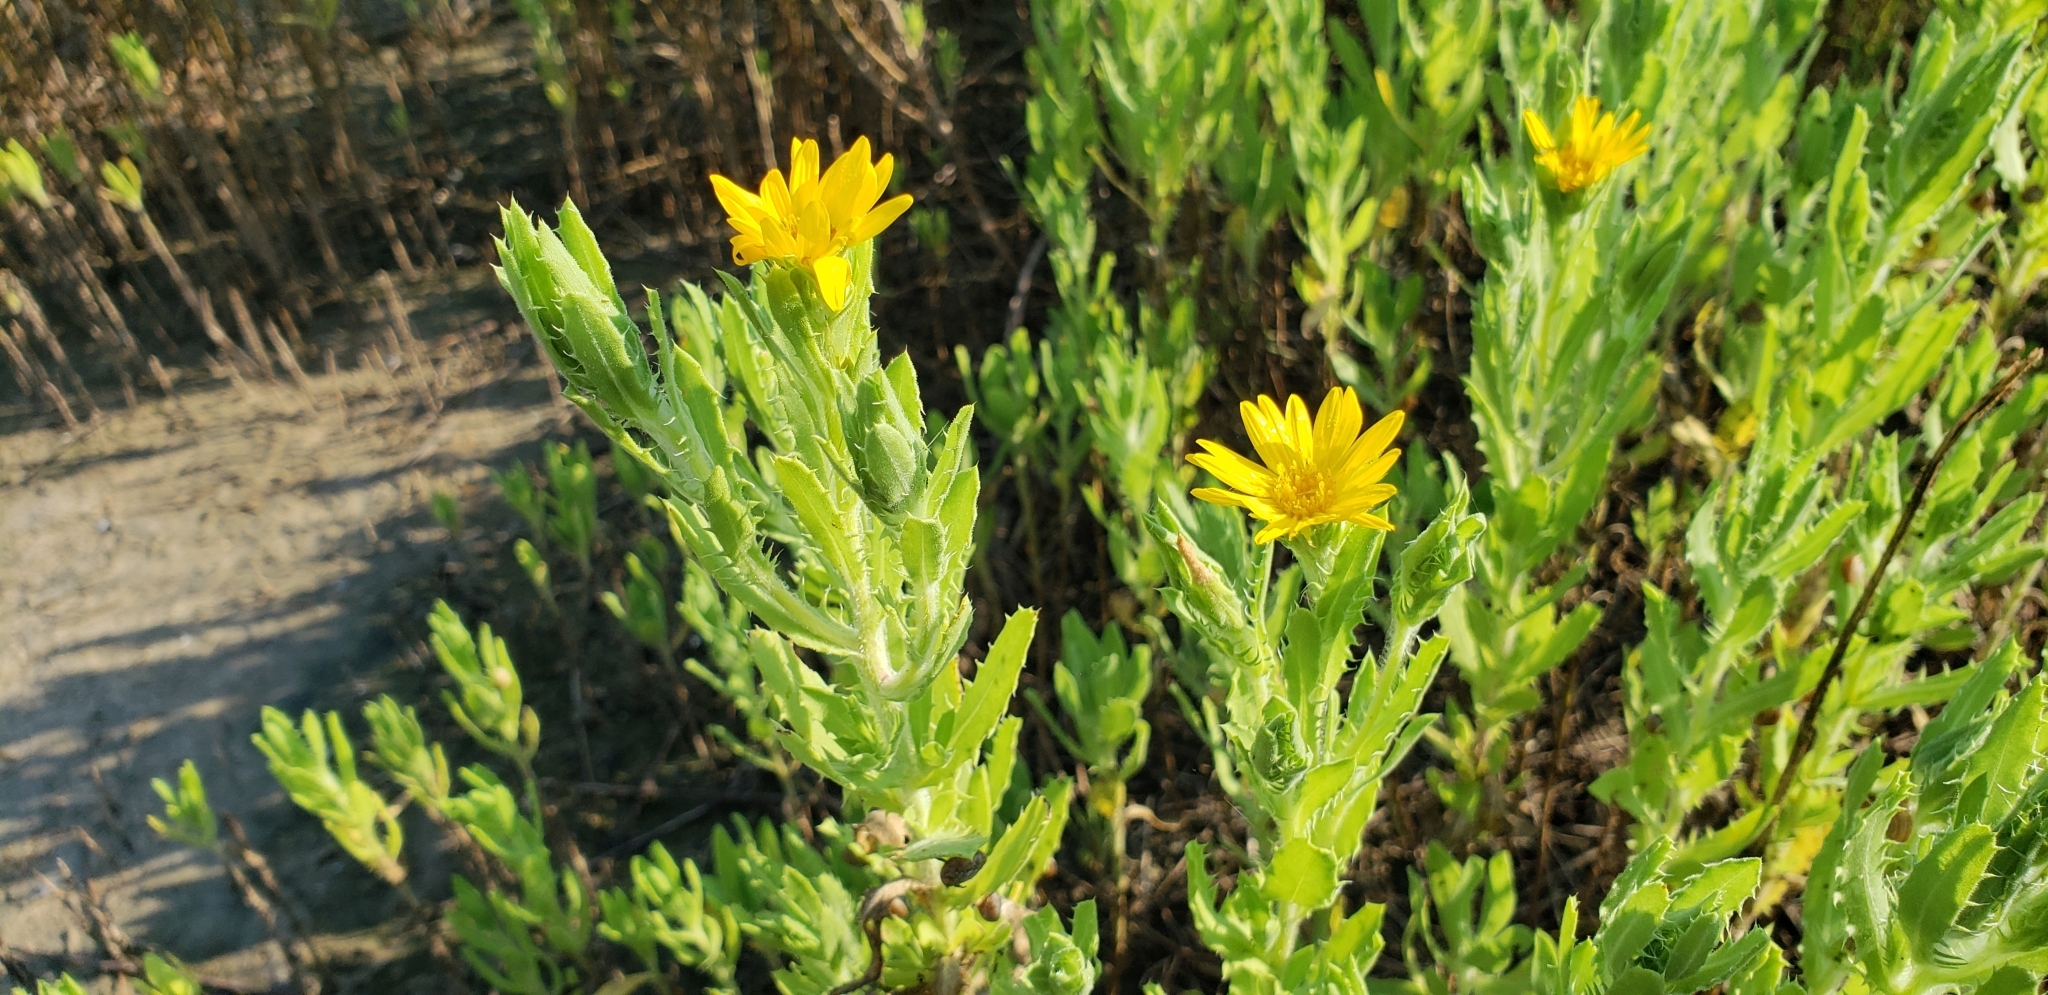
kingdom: Plantae
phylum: Tracheophyta
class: Magnoliopsida
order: Asterales
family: Asteraceae
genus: Rayjacksonia
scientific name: Rayjacksonia phyllocephala
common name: Gulf coast camphor daisy
